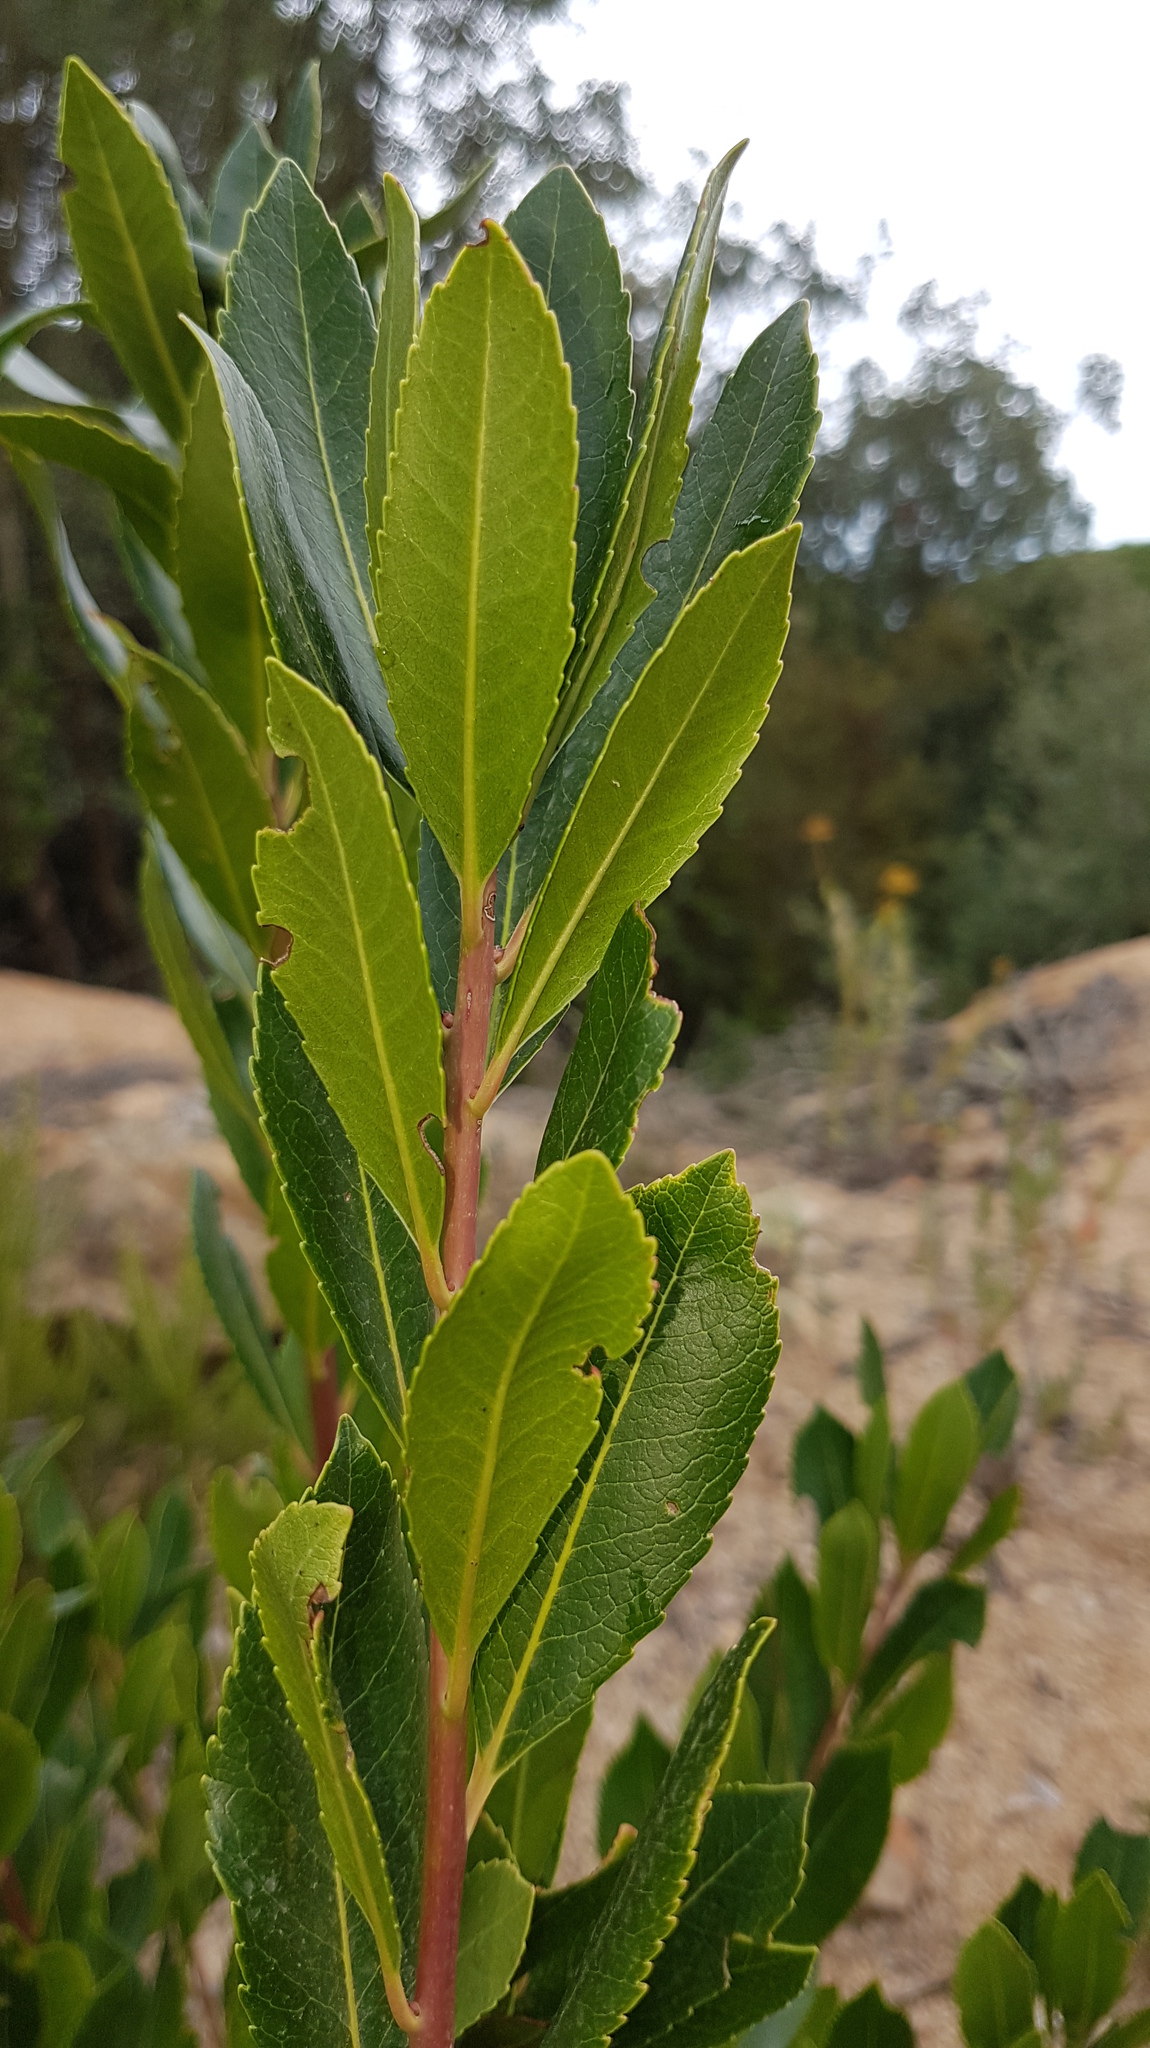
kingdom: Plantae
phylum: Tracheophyta
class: Magnoliopsida
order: Ericales
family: Ericaceae
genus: Arbutus
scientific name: Arbutus unedo
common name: Strawberry-tree
